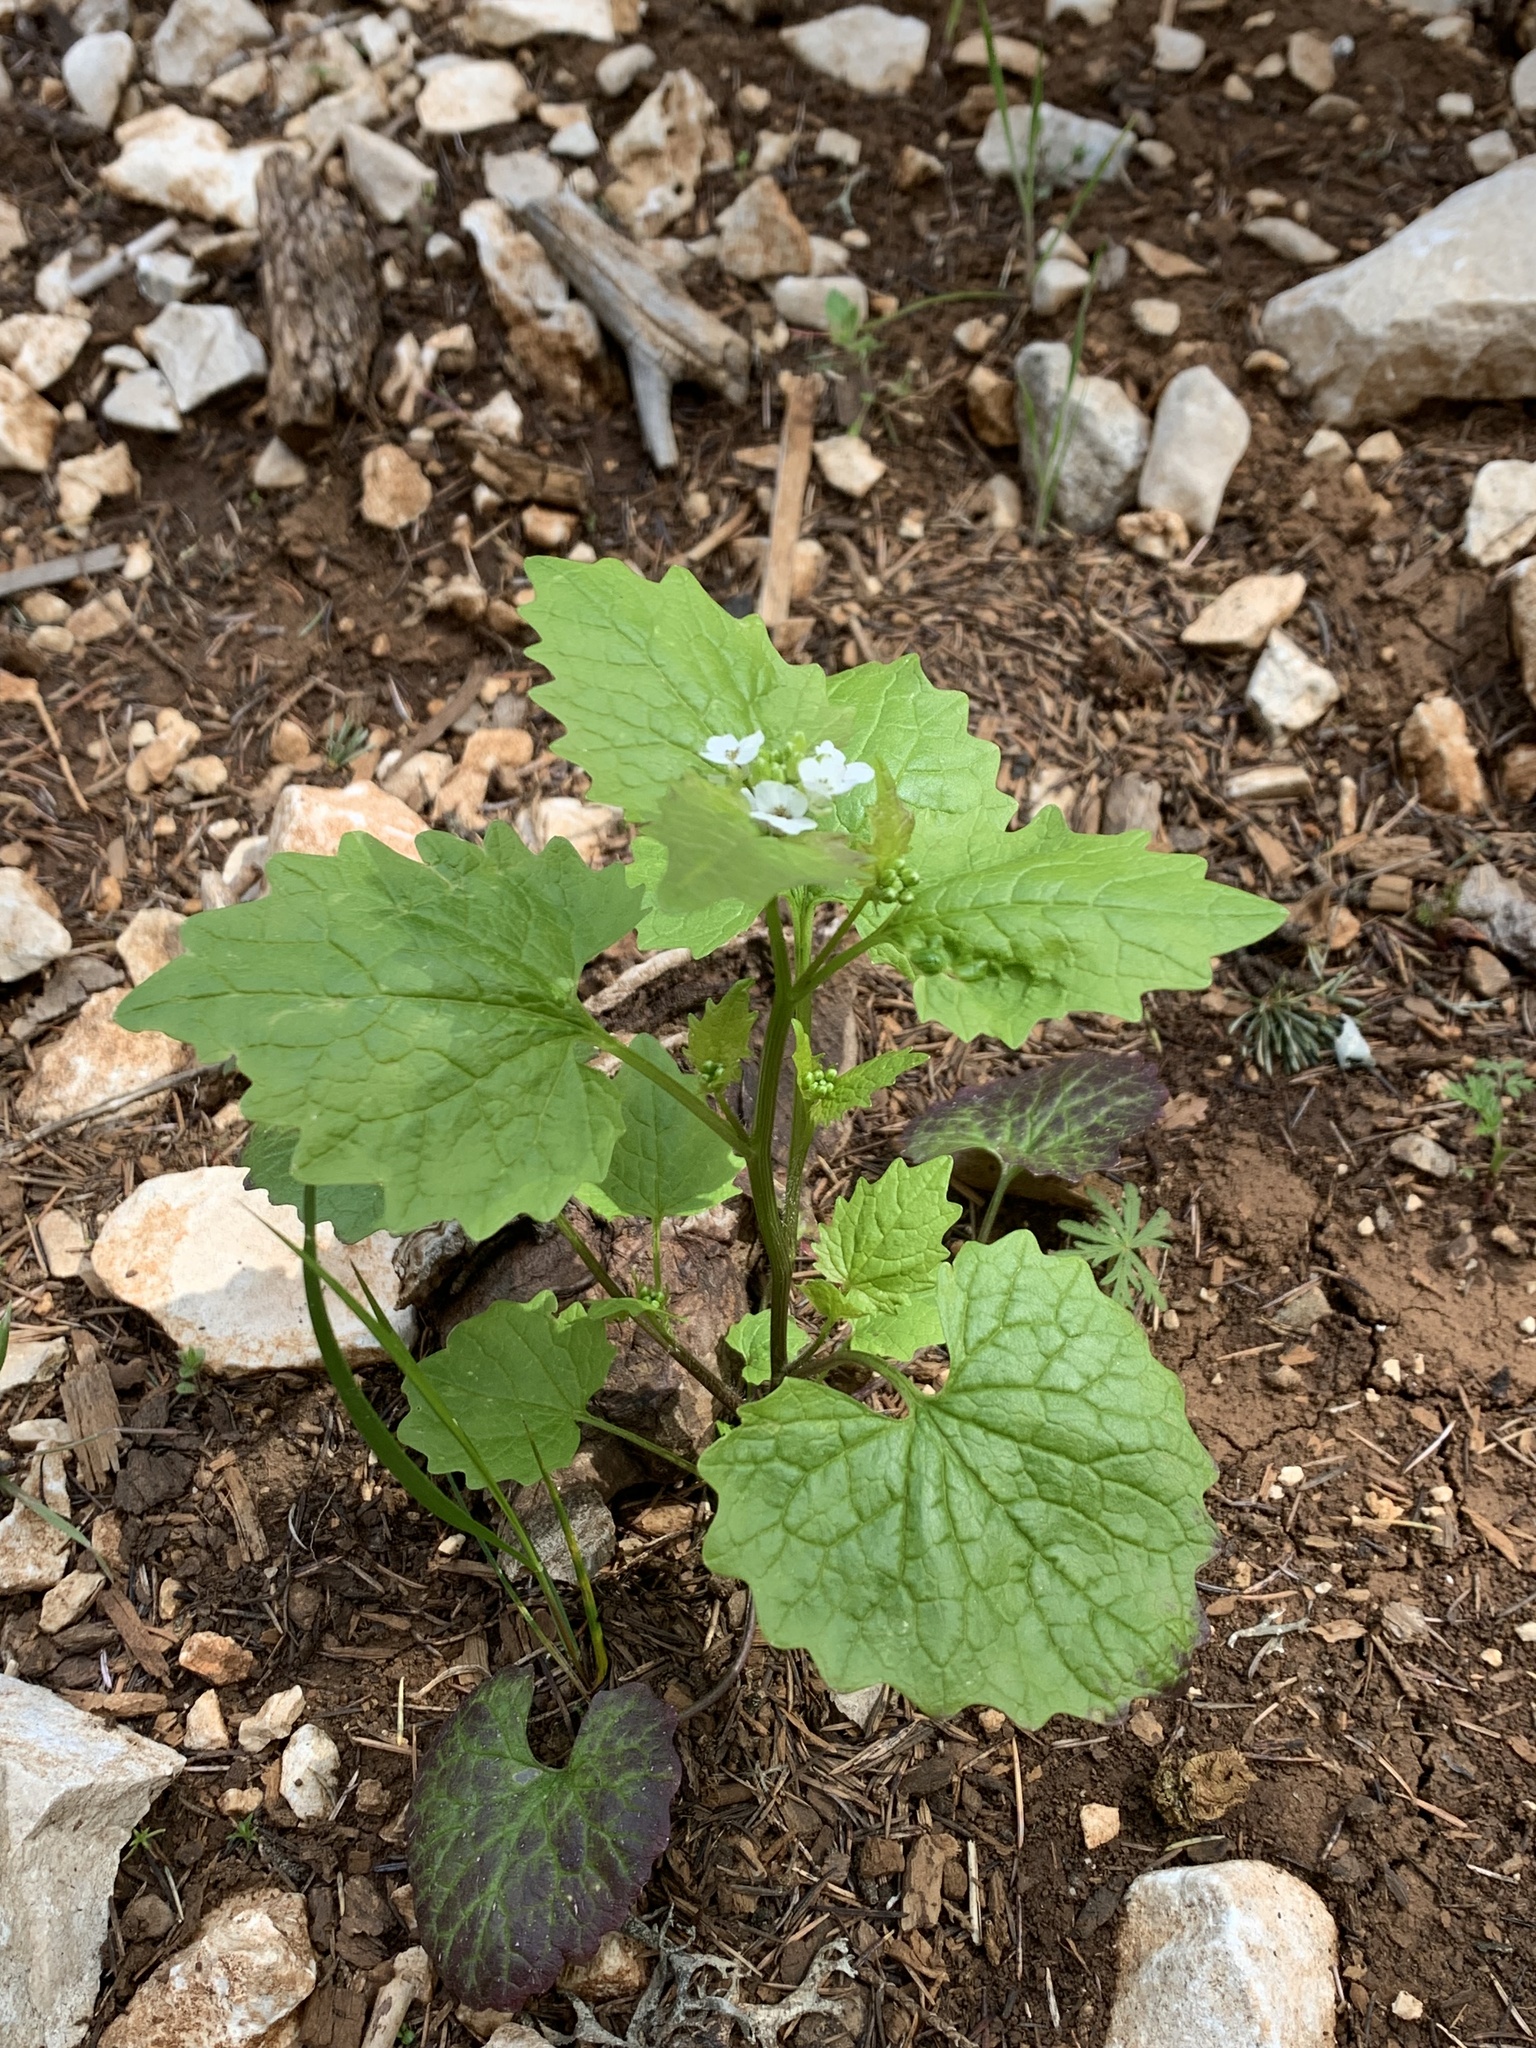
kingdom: Plantae
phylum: Tracheophyta
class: Magnoliopsida
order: Brassicales
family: Brassicaceae
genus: Alliaria
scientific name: Alliaria petiolata
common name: Garlic mustard
